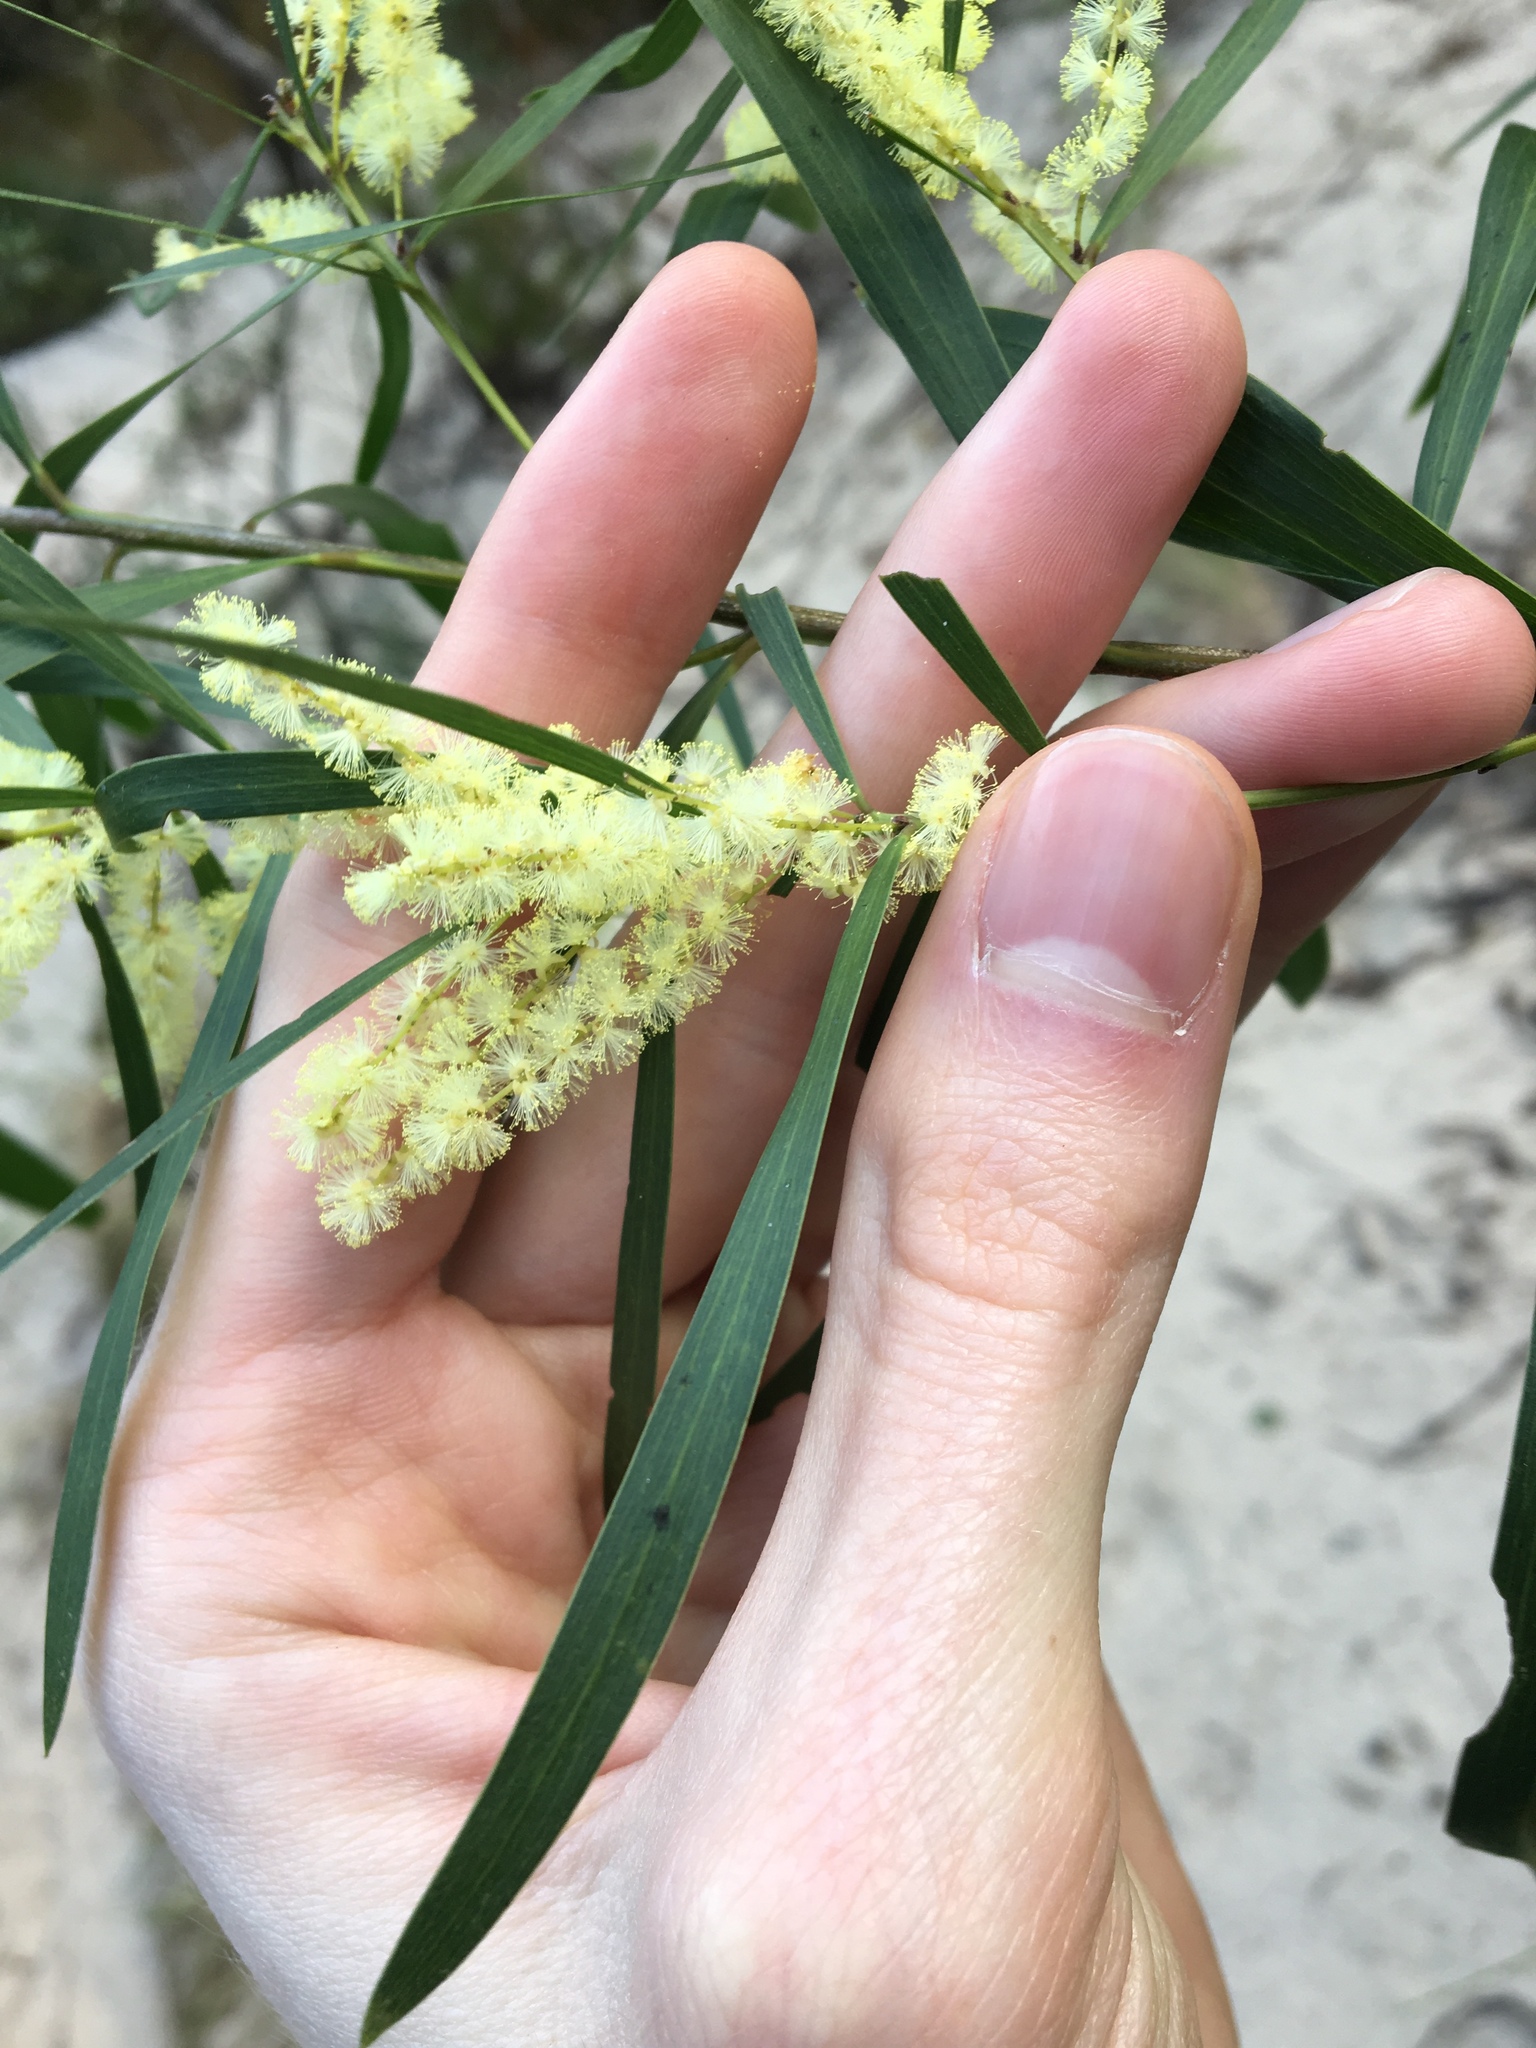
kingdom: Plantae
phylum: Tracheophyta
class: Magnoliopsida
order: Fabales
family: Fabaceae
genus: Acacia
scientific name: Acacia floribunda
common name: Gossamer wattle
